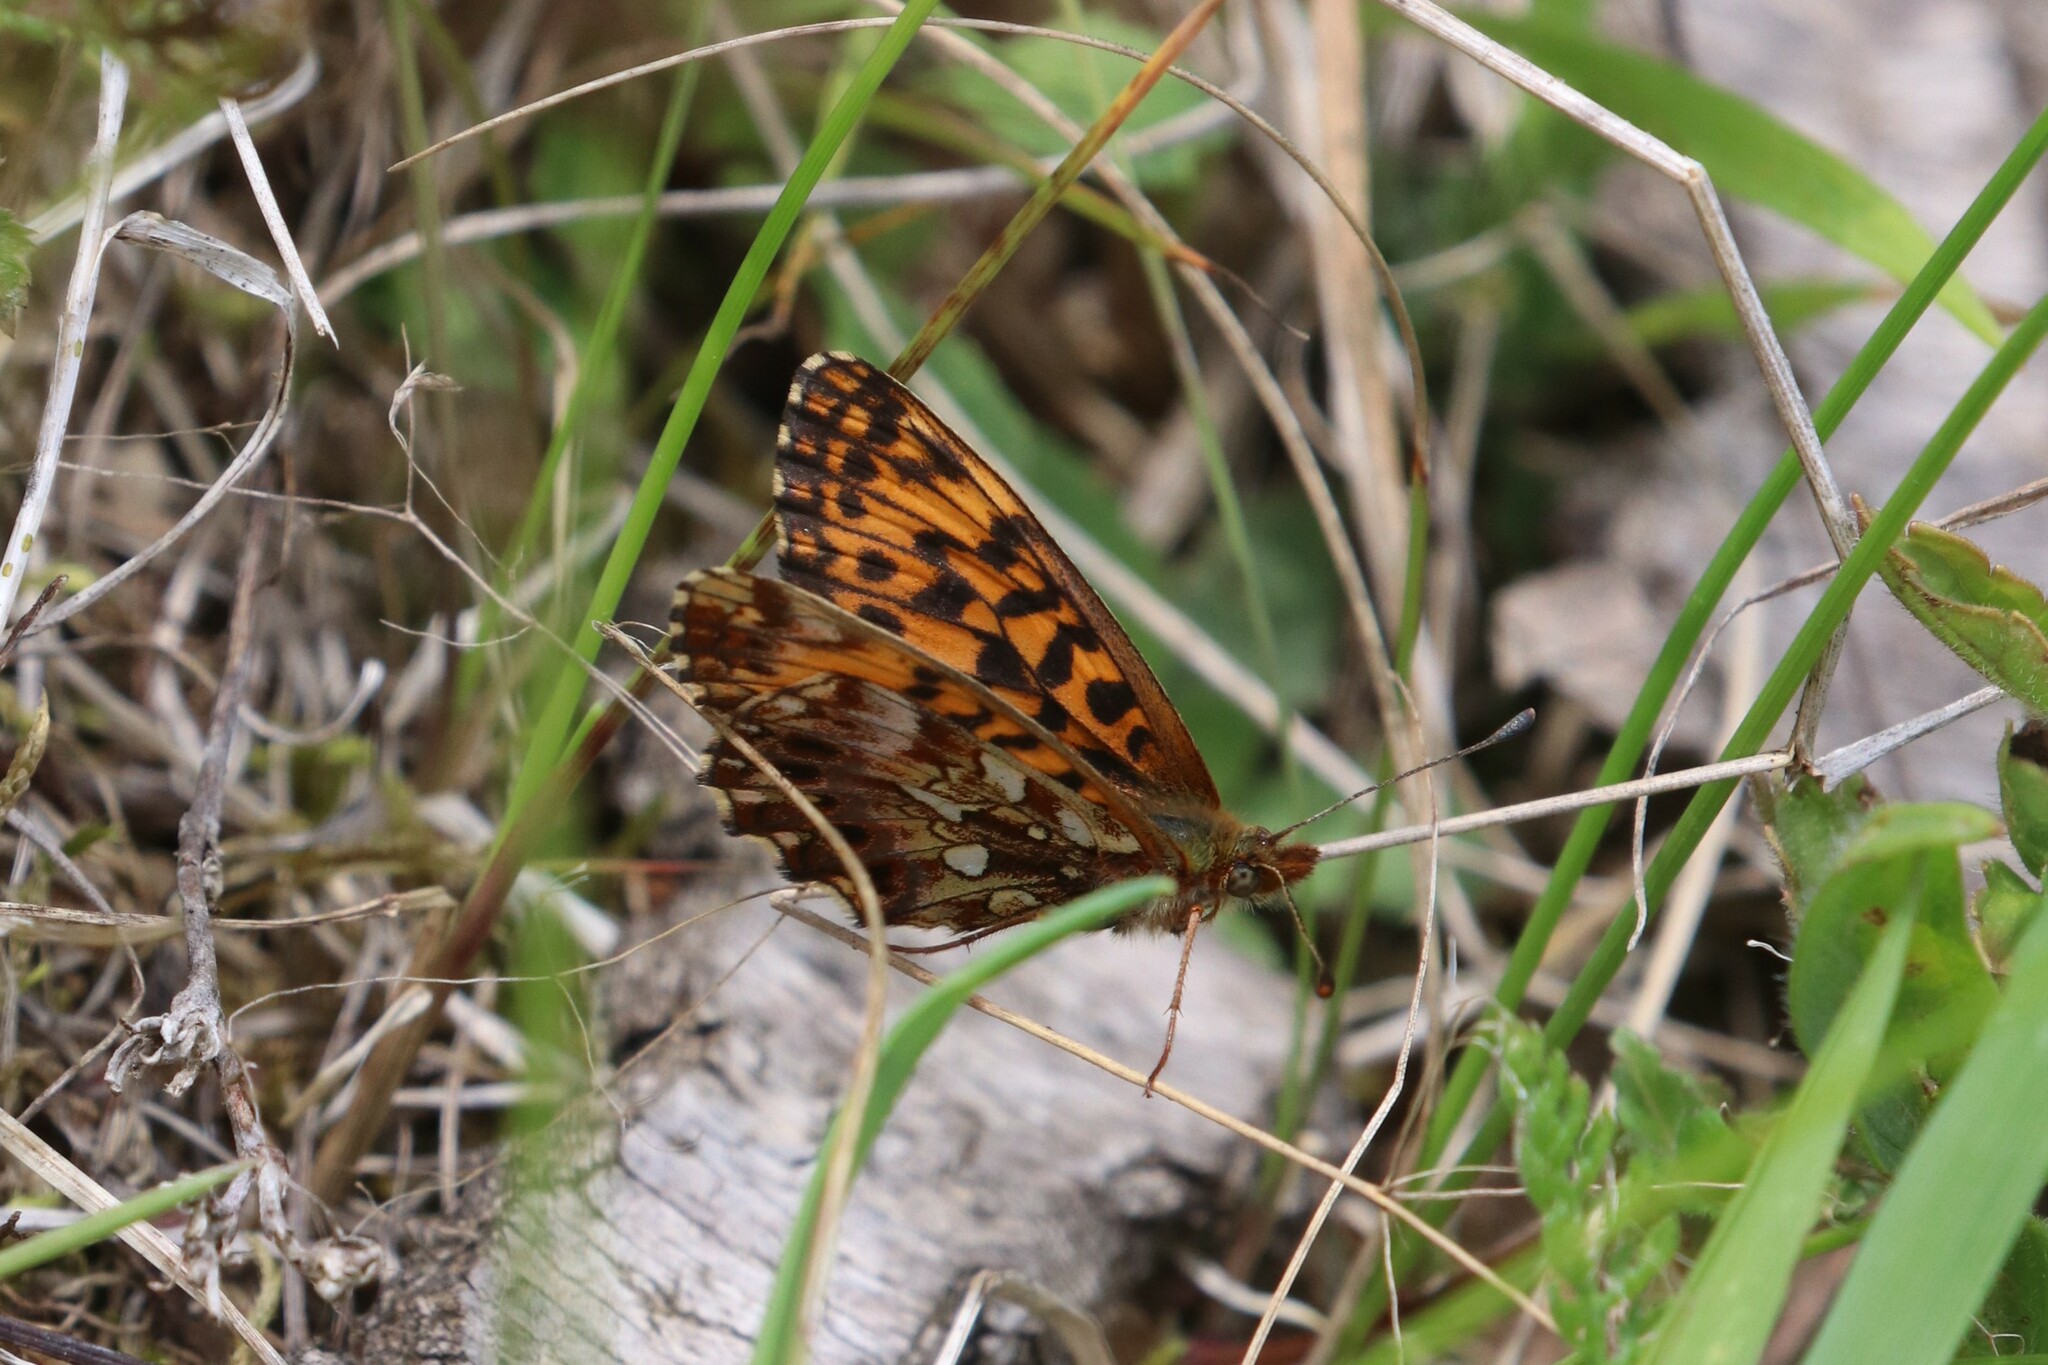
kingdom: Animalia
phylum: Arthropoda
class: Insecta
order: Lepidoptera
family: Nymphalidae
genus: Boloria
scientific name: Boloria dia
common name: Weaver's fritillary
